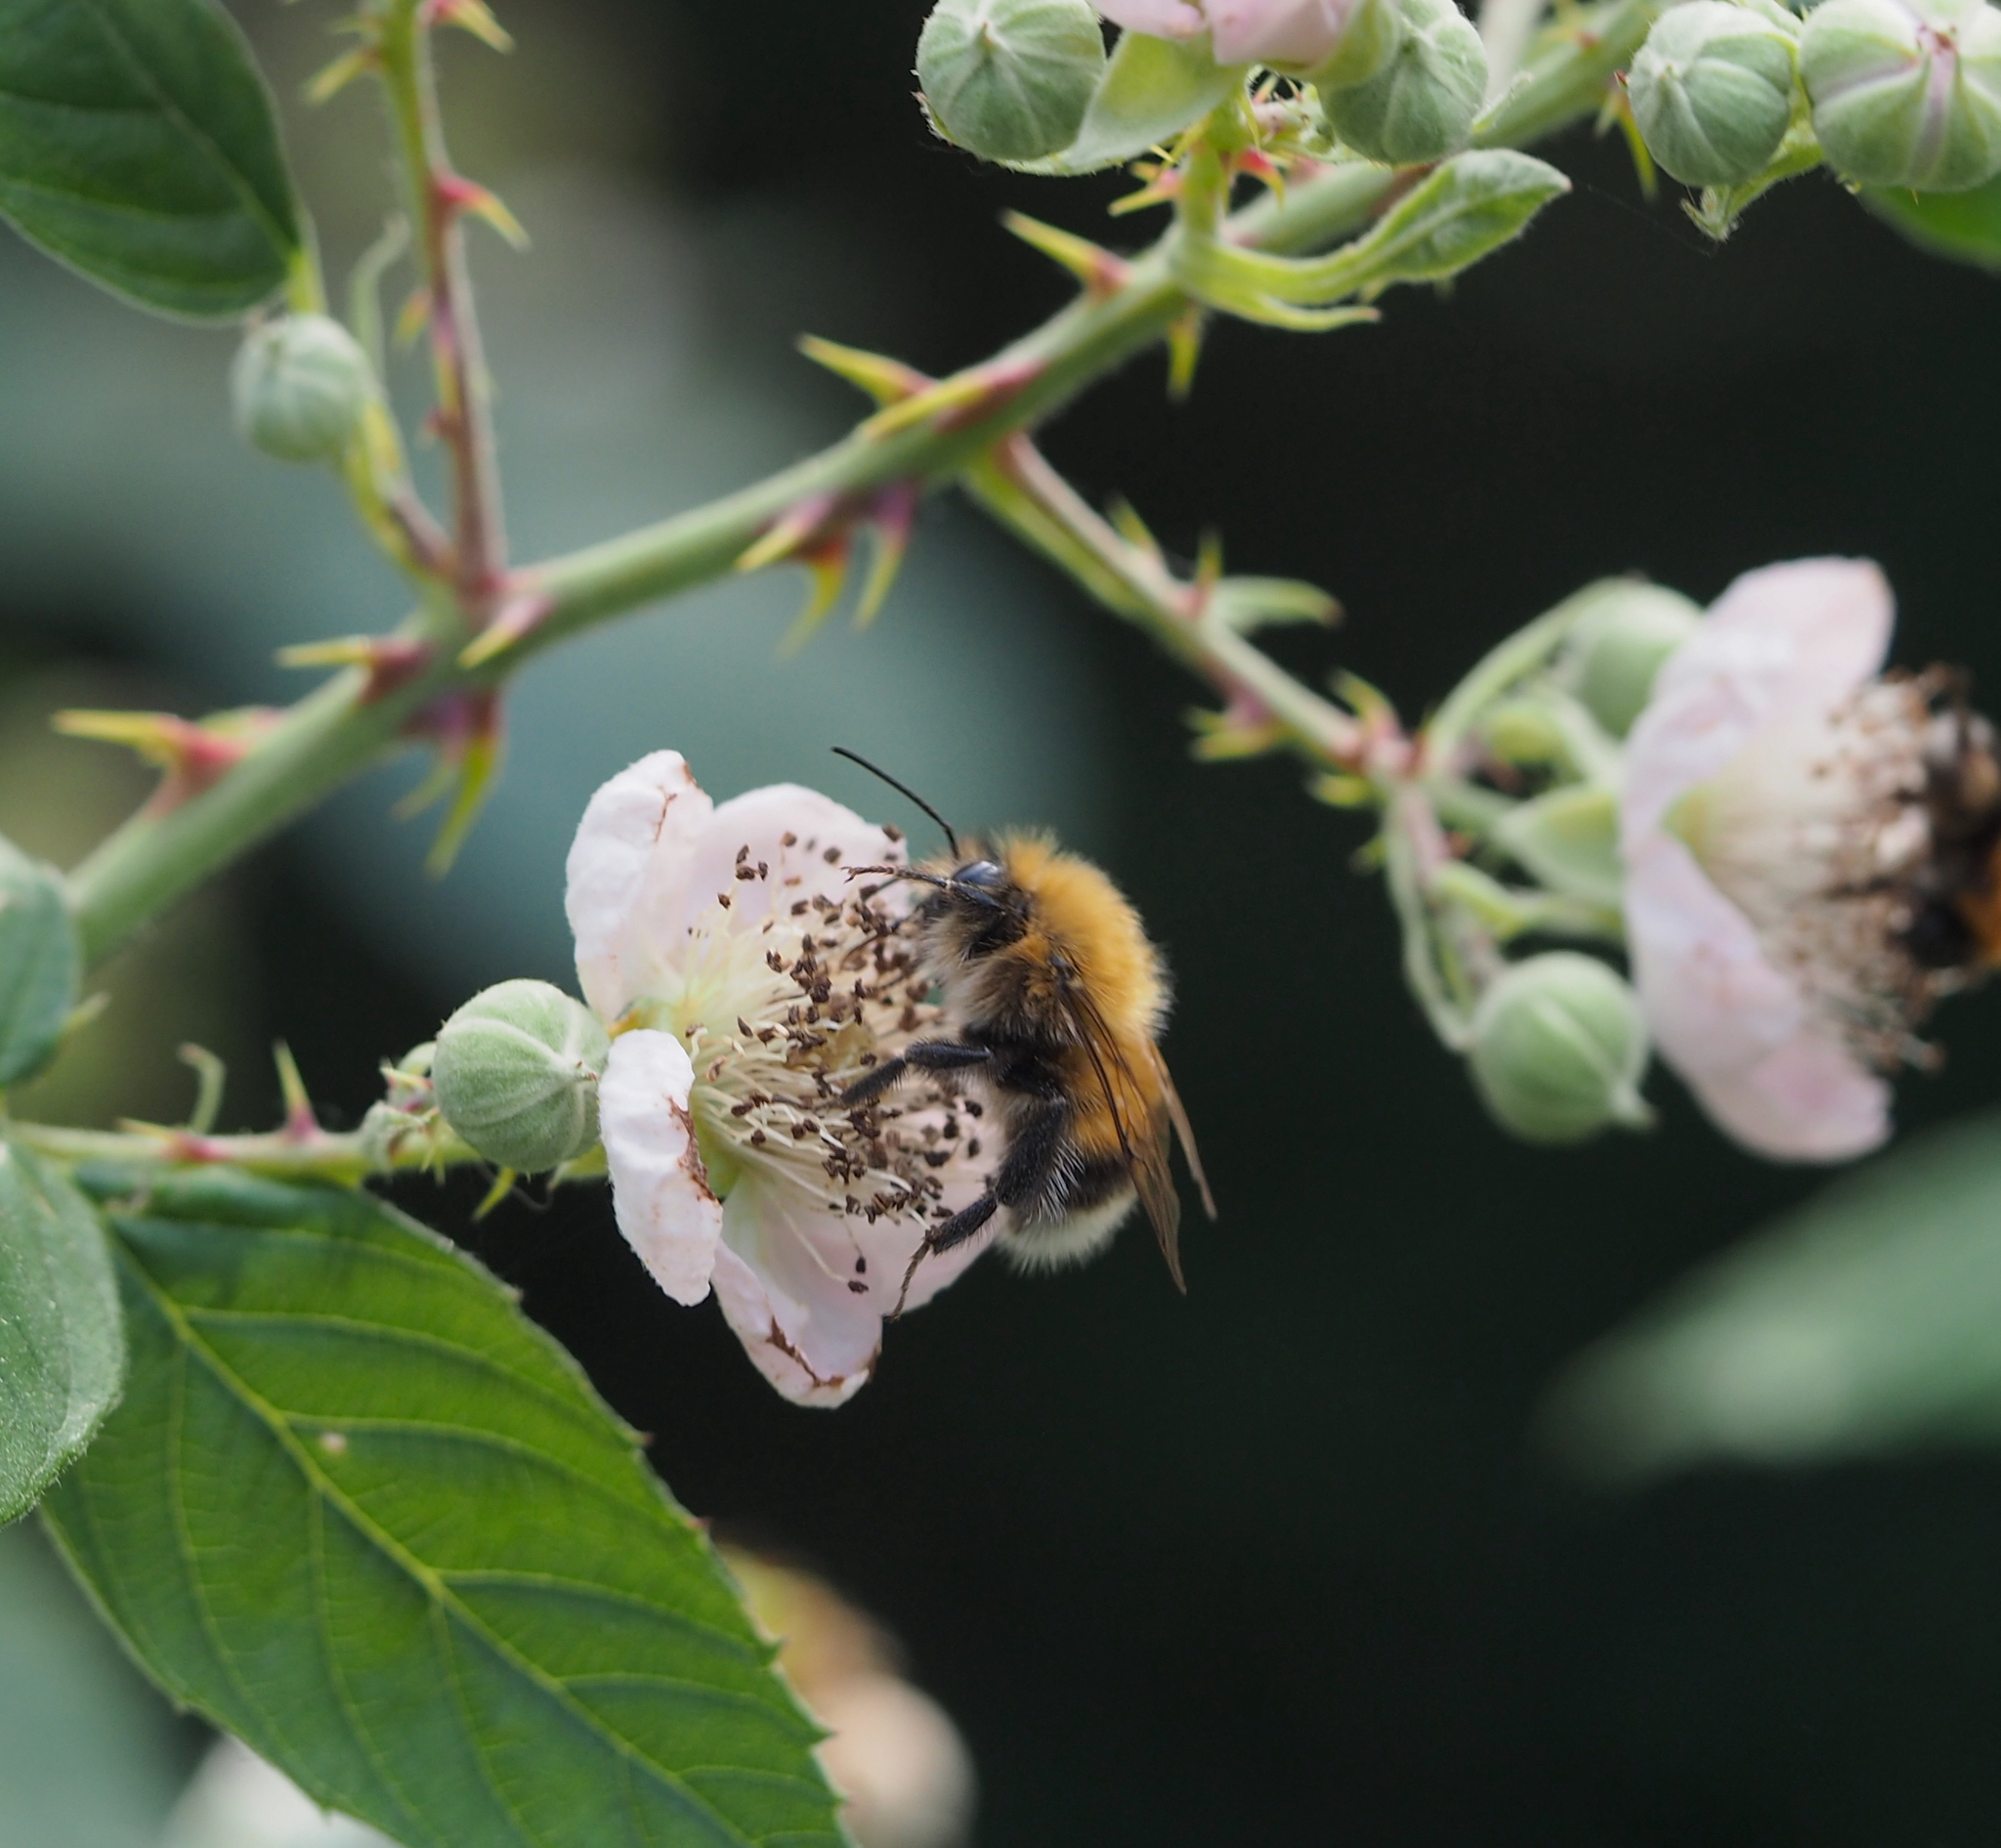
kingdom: Animalia
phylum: Arthropoda
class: Insecta
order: Hymenoptera
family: Apidae
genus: Bombus
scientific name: Bombus hypnorum
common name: New garden bumblebee
